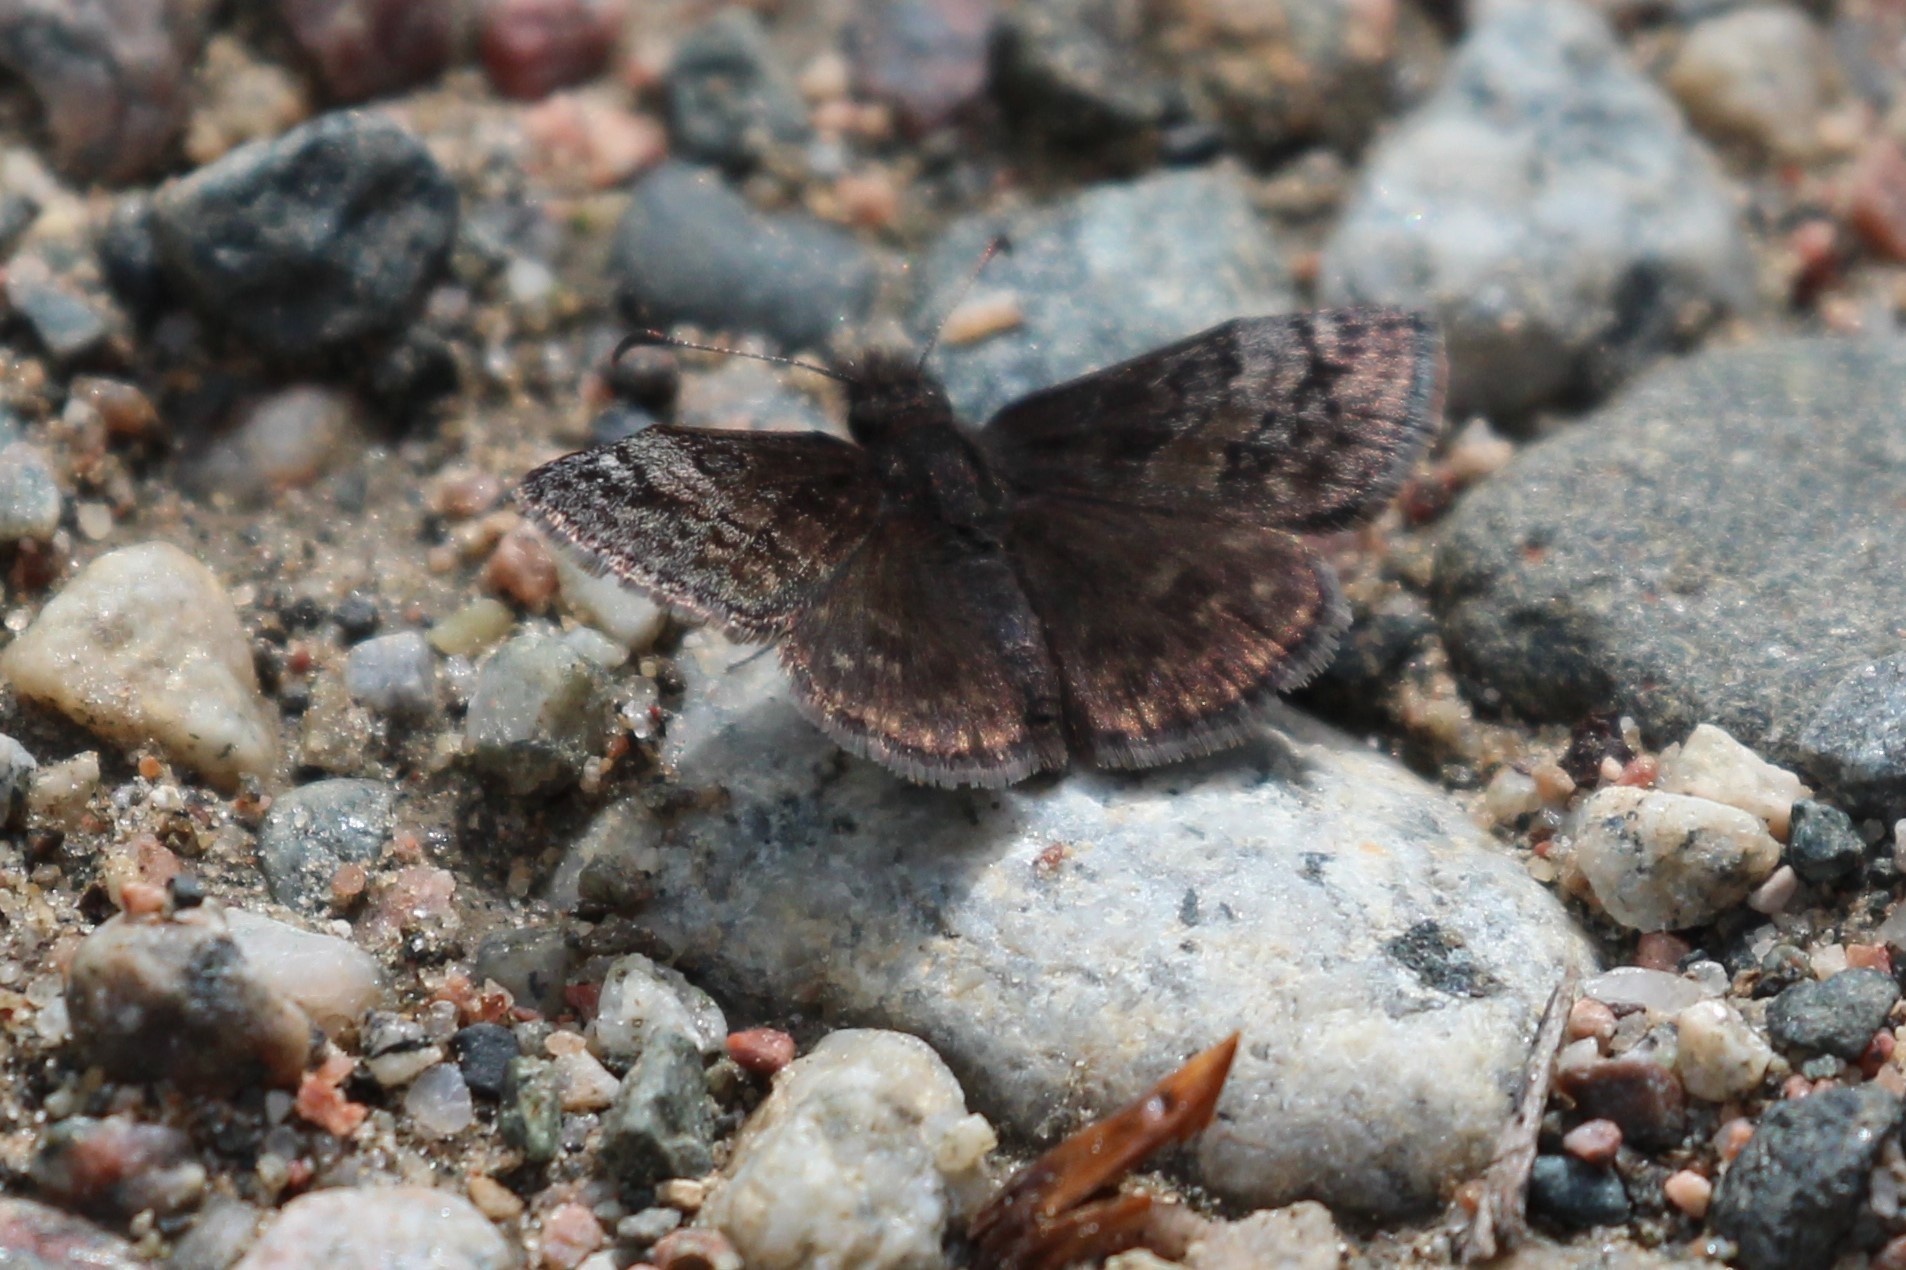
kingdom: Animalia
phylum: Arthropoda
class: Insecta
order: Lepidoptera
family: Hesperiidae
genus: Erynnis
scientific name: Erynnis icelus
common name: Dreamy duskywing
